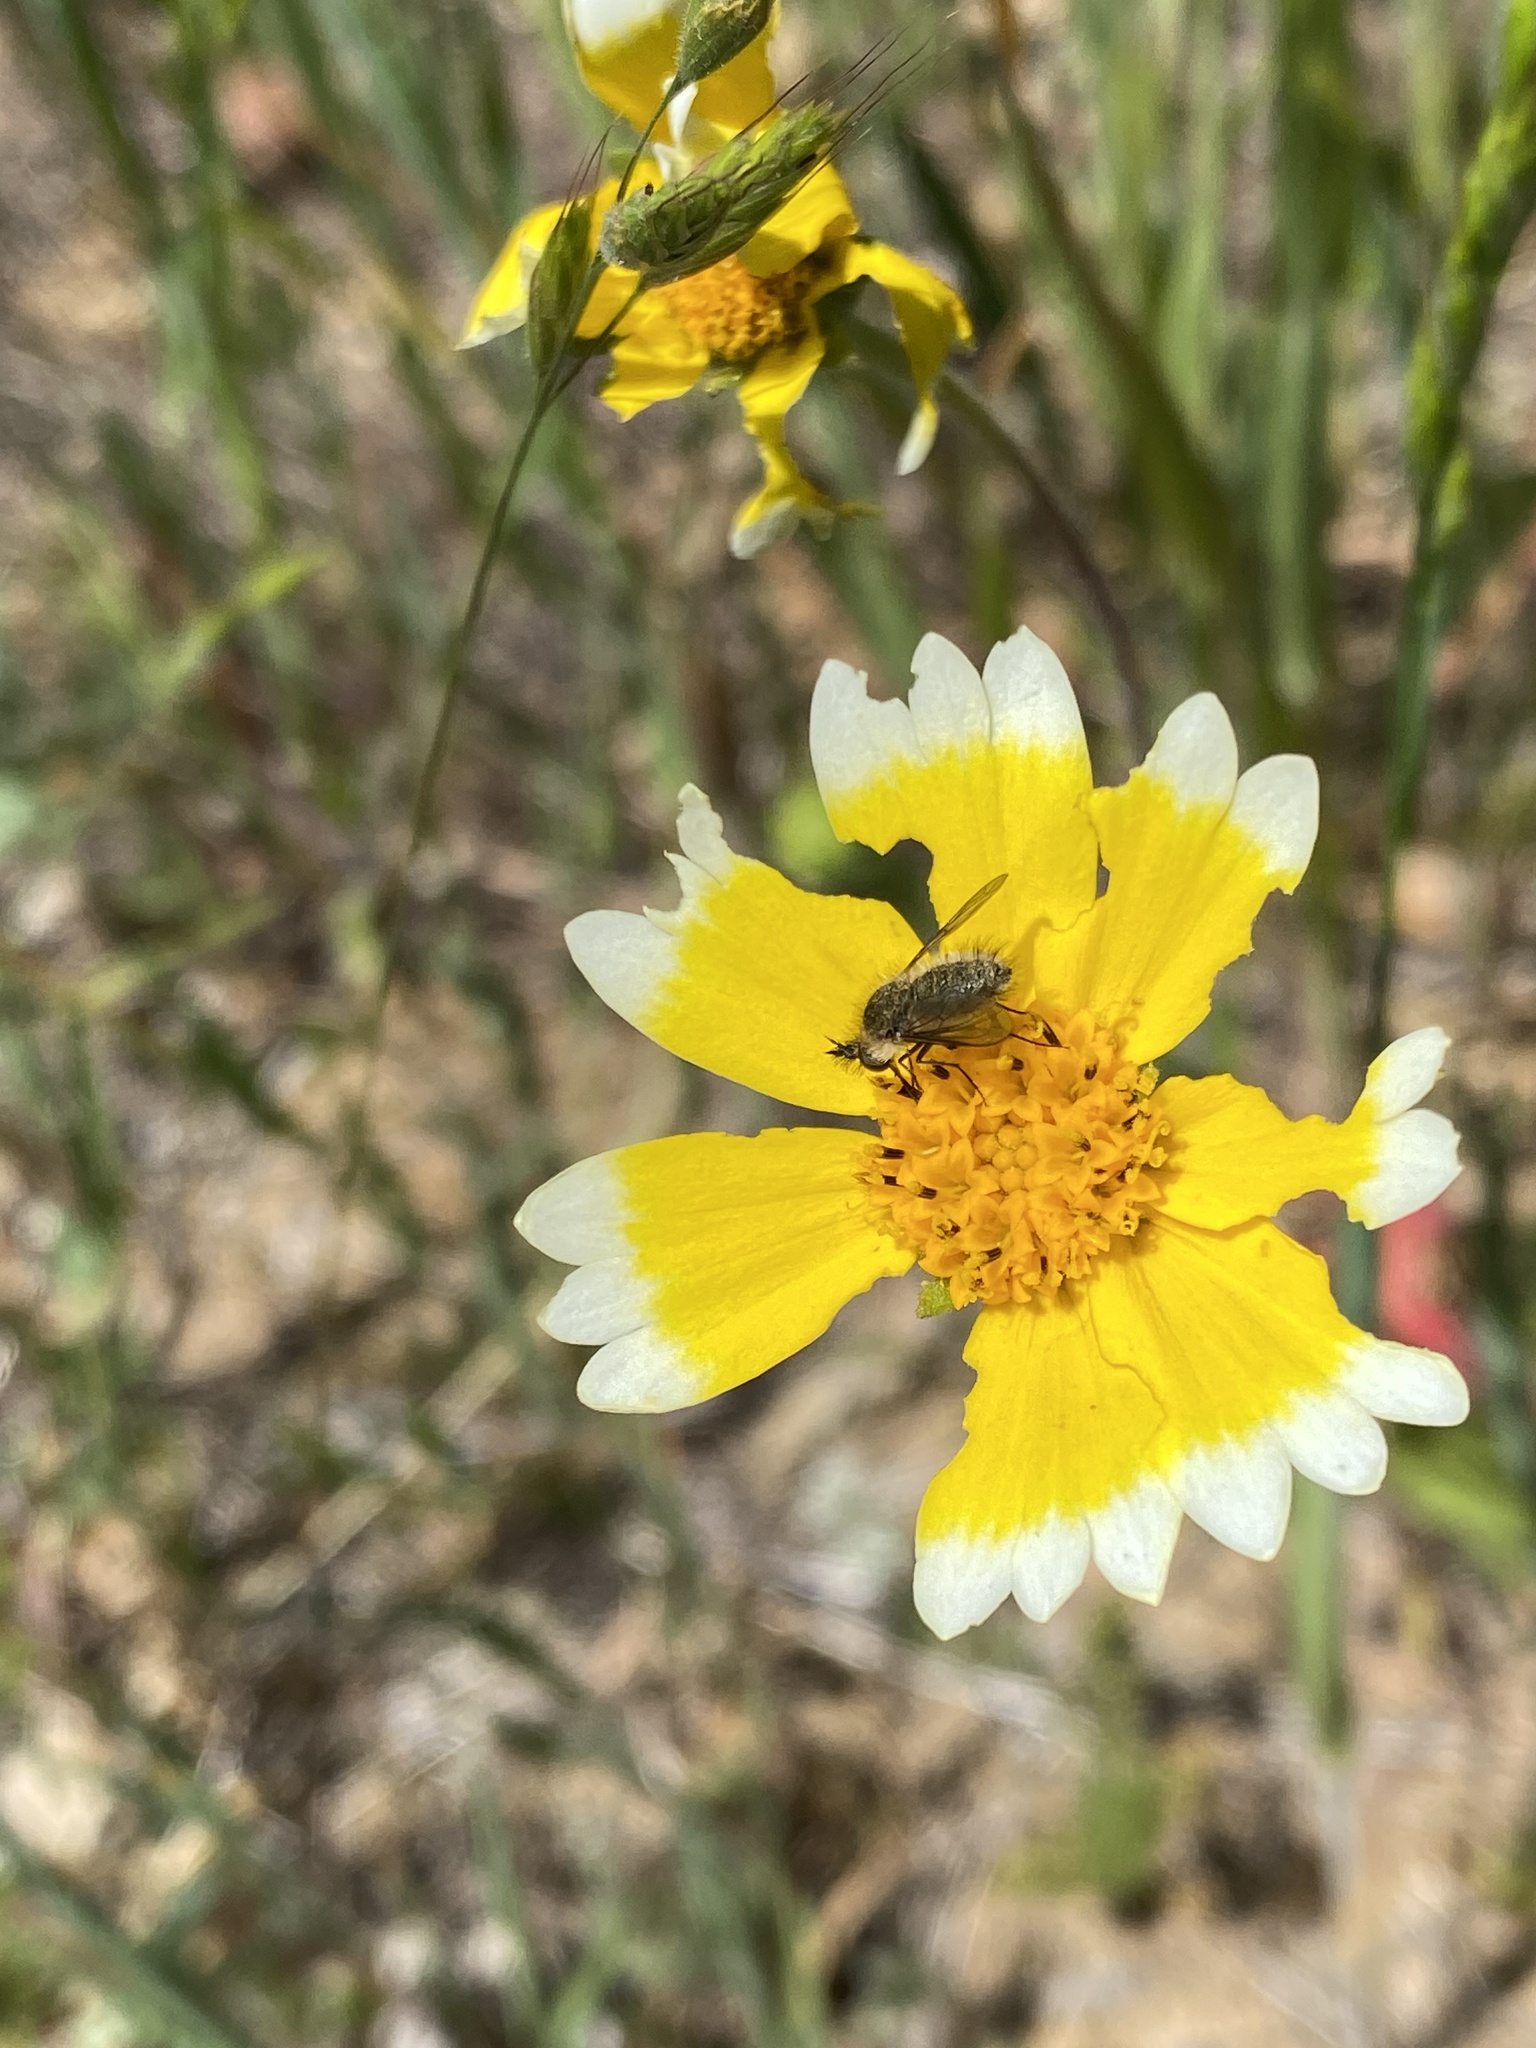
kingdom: Plantae
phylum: Tracheophyta
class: Magnoliopsida
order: Asterales
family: Asteraceae
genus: Layia
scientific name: Layia platyglossa
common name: Tidy-tips
